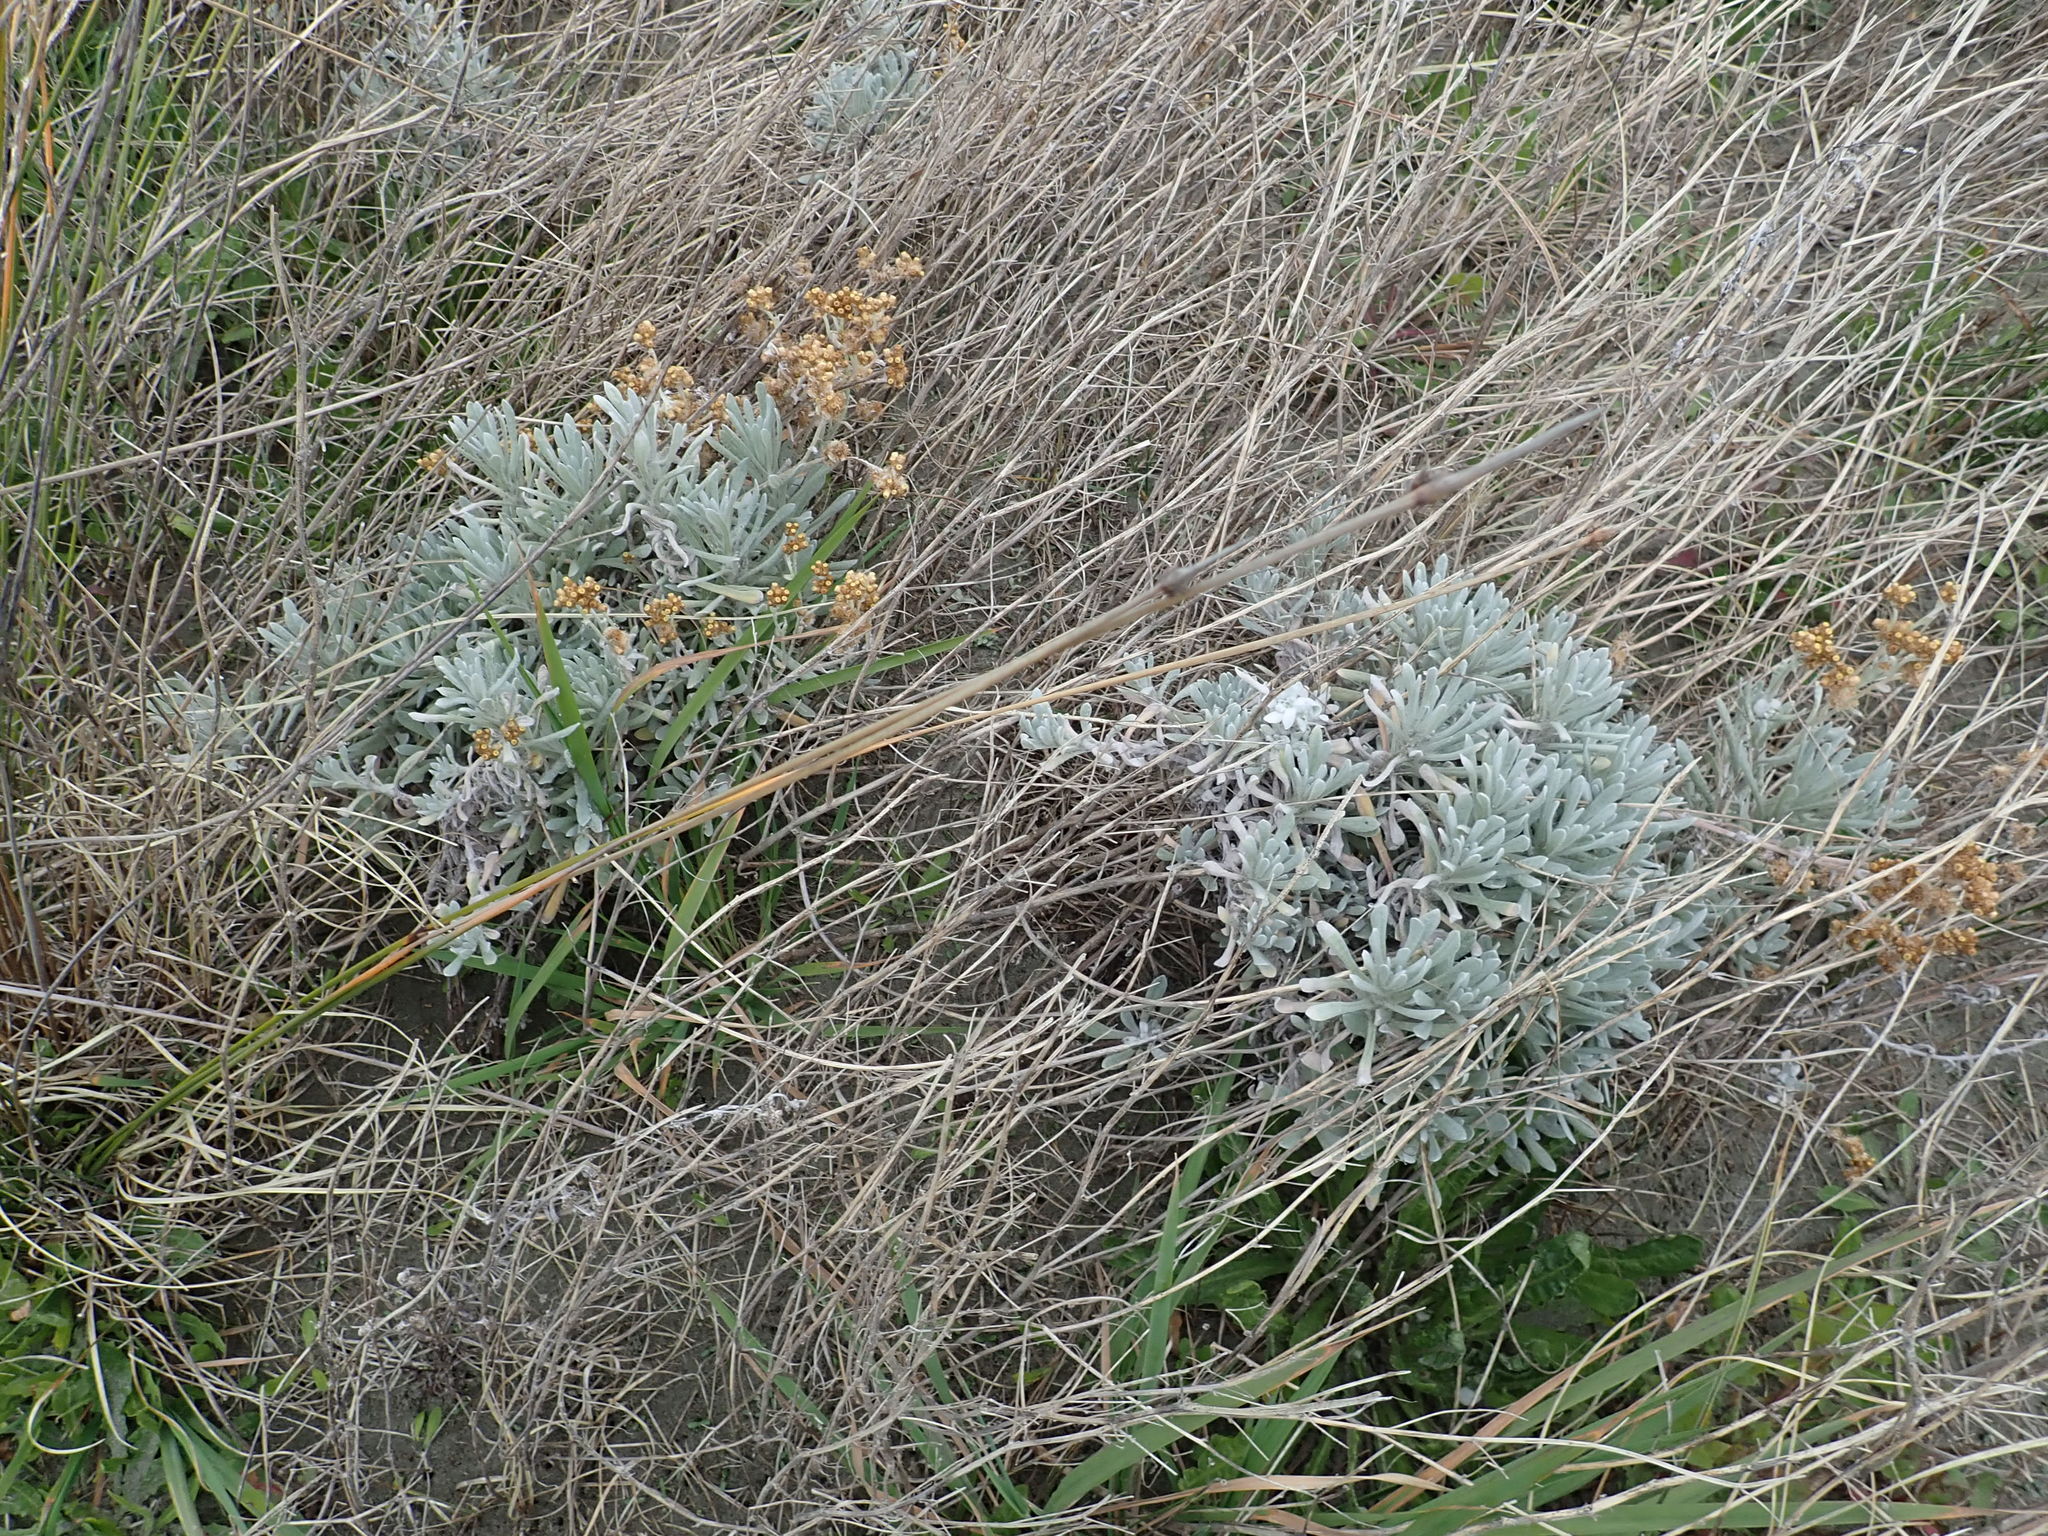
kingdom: Plantae
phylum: Tracheophyta
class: Magnoliopsida
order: Asterales
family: Asteraceae
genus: Helichrysum
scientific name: Helichrysum luteoalbum
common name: Daisy
